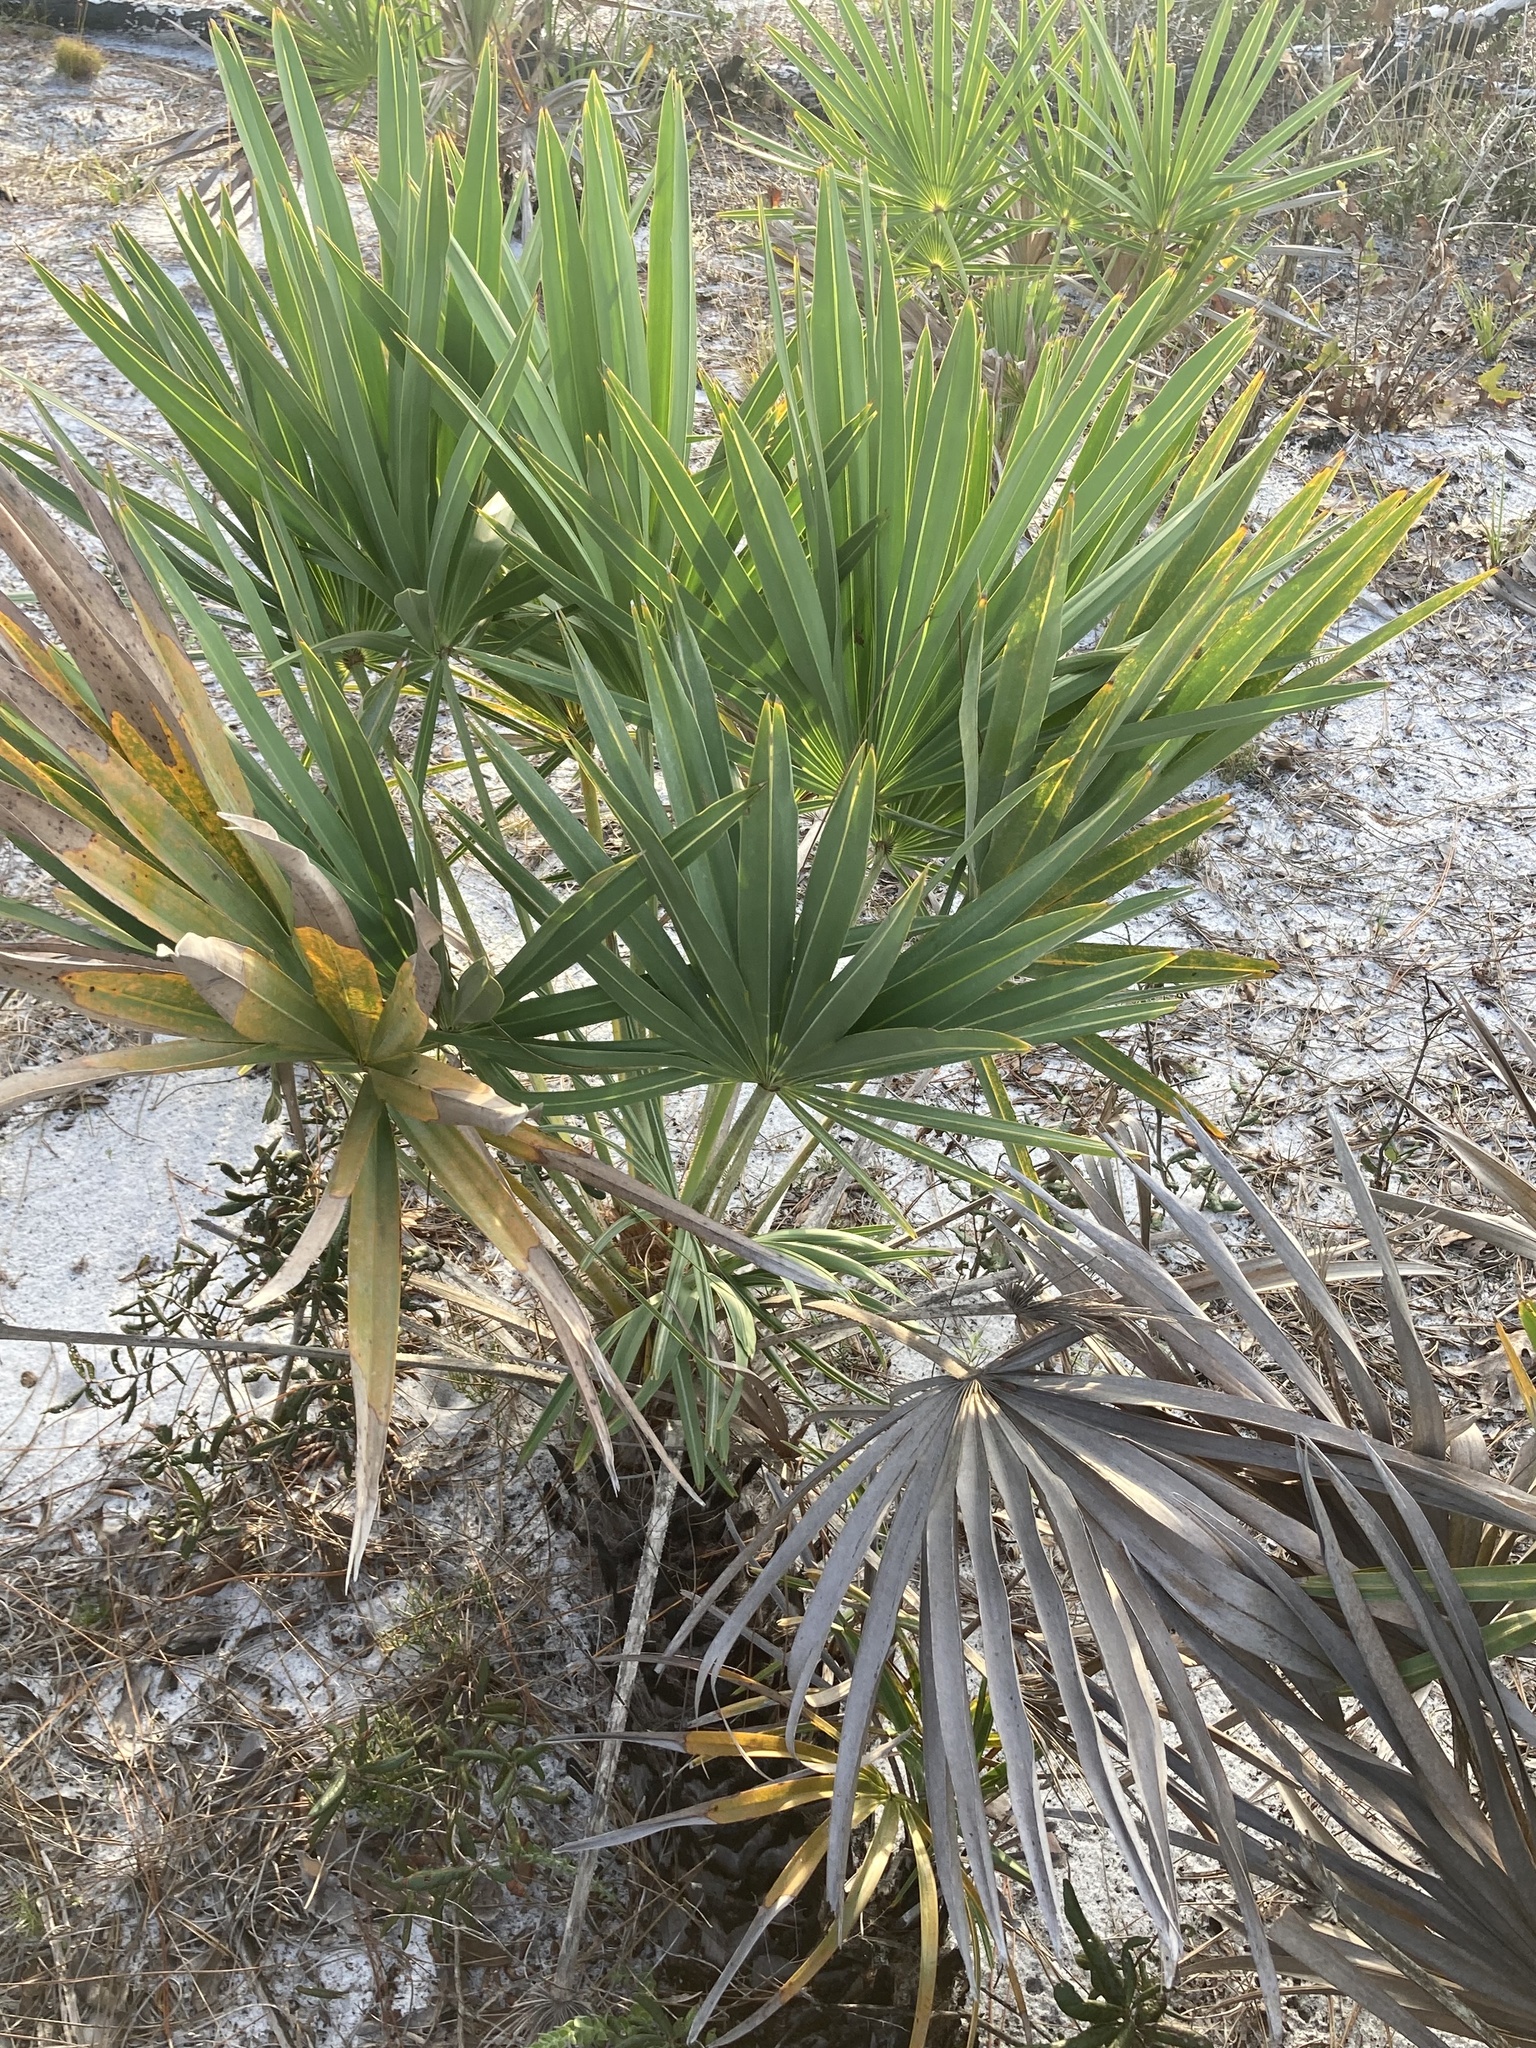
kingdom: Plantae
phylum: Tracheophyta
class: Liliopsida
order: Arecales
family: Arecaceae
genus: Serenoa
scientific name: Serenoa repens
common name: Saw-palmetto
